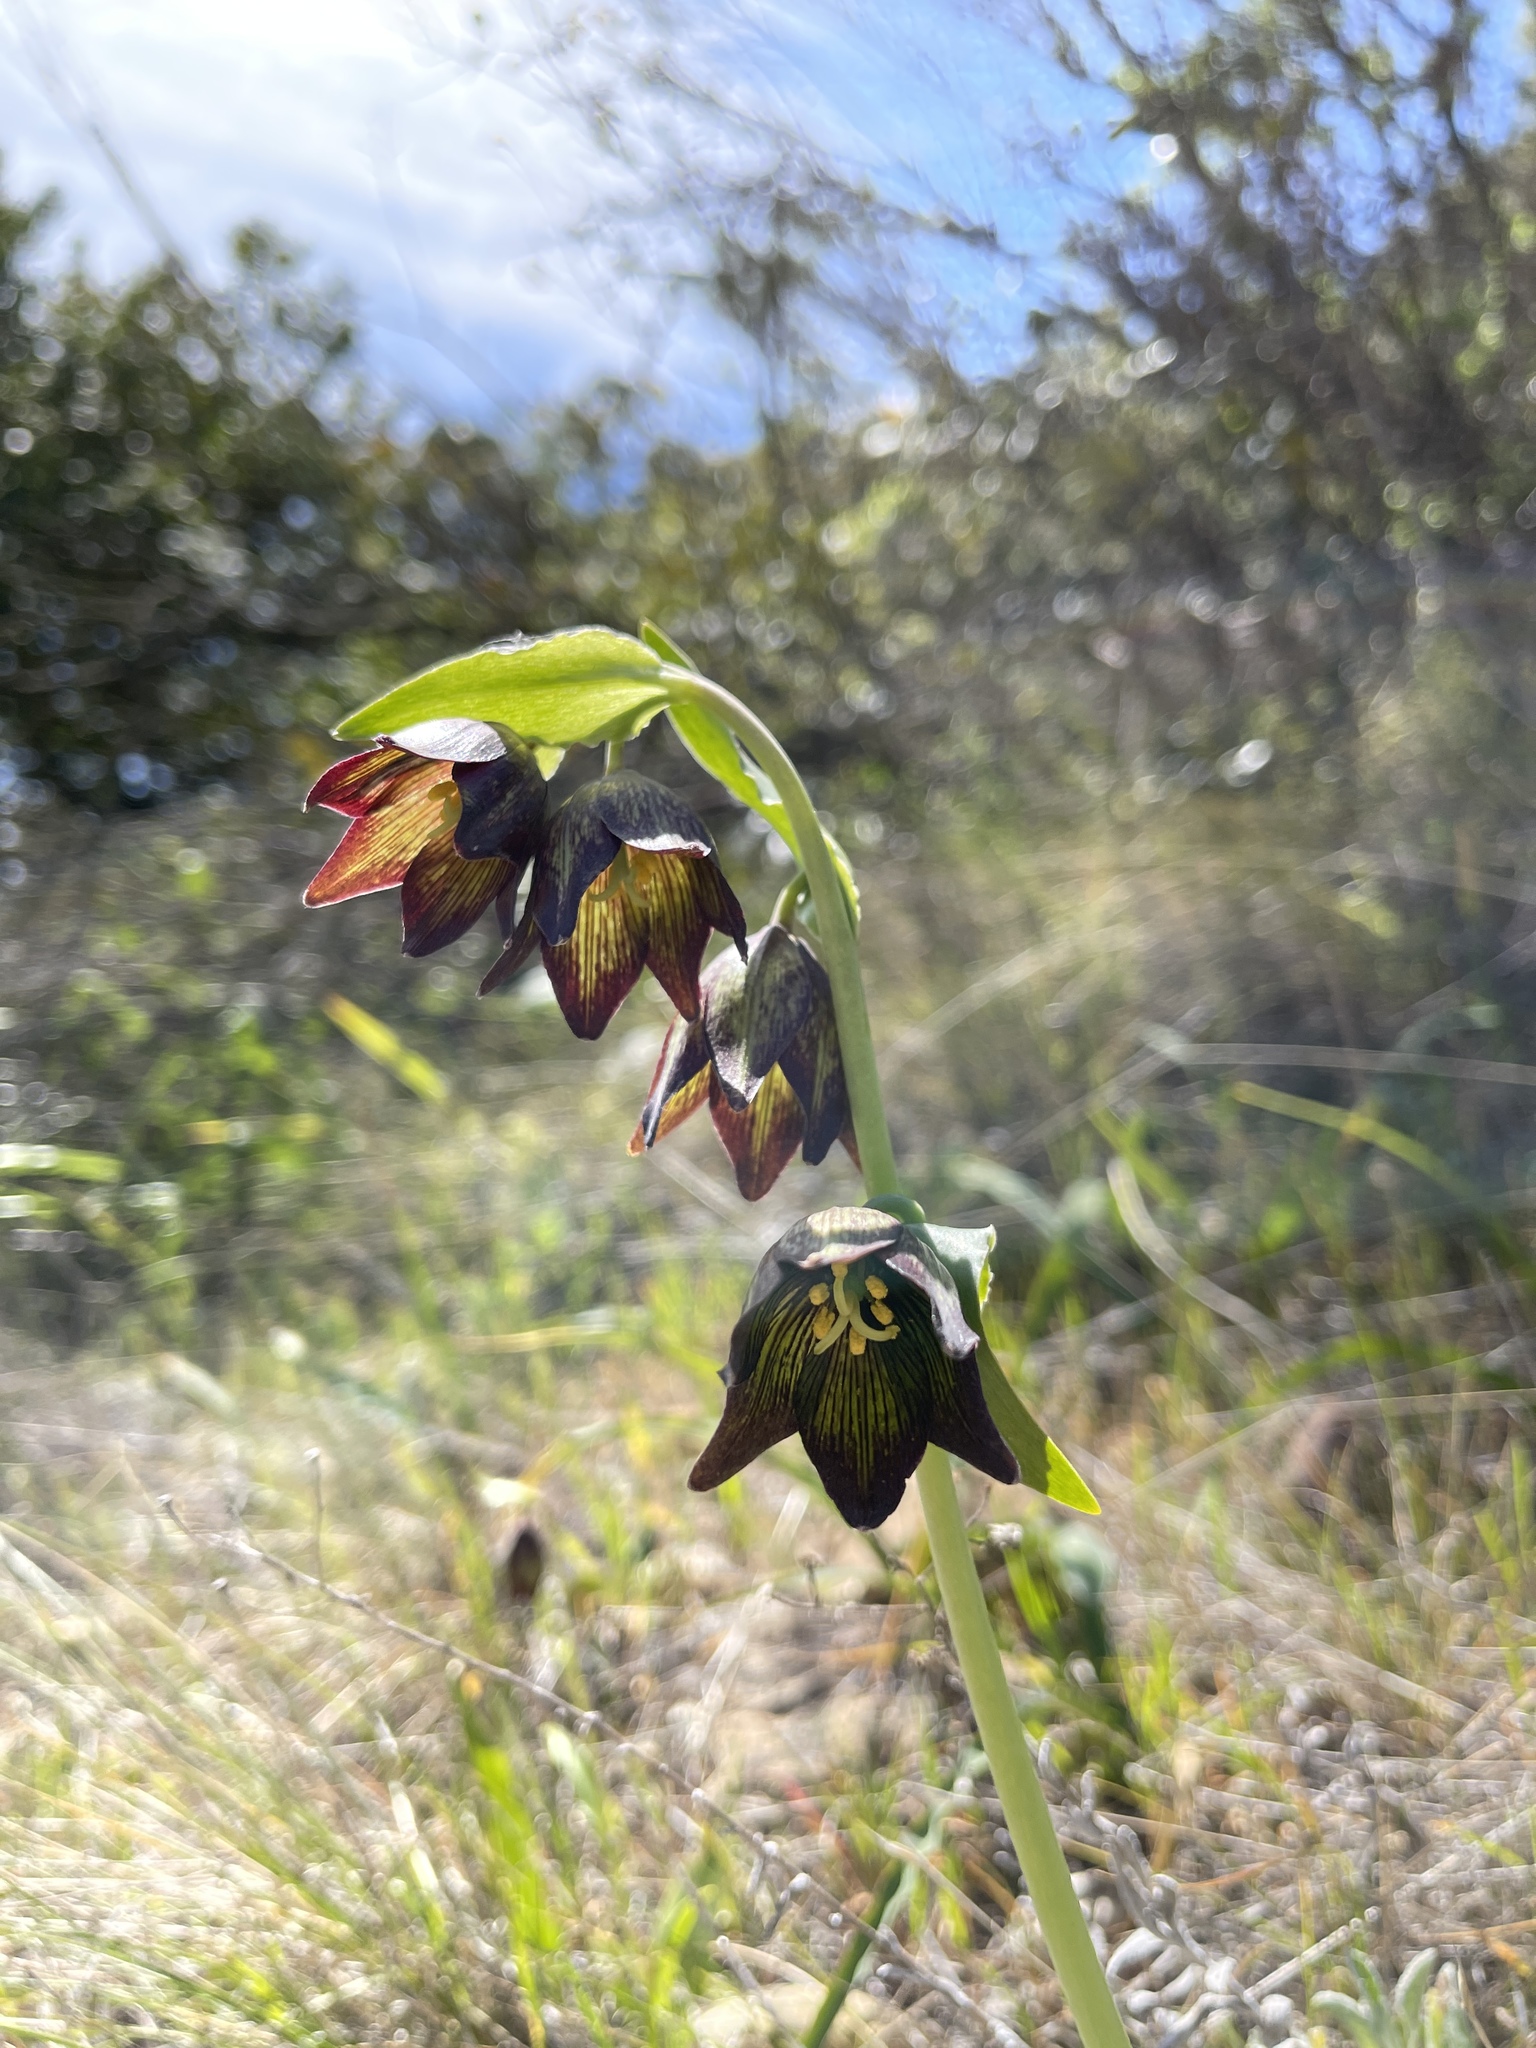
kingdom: Plantae
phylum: Tracheophyta
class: Liliopsida
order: Liliales
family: Liliaceae
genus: Fritillaria
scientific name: Fritillaria biflora
